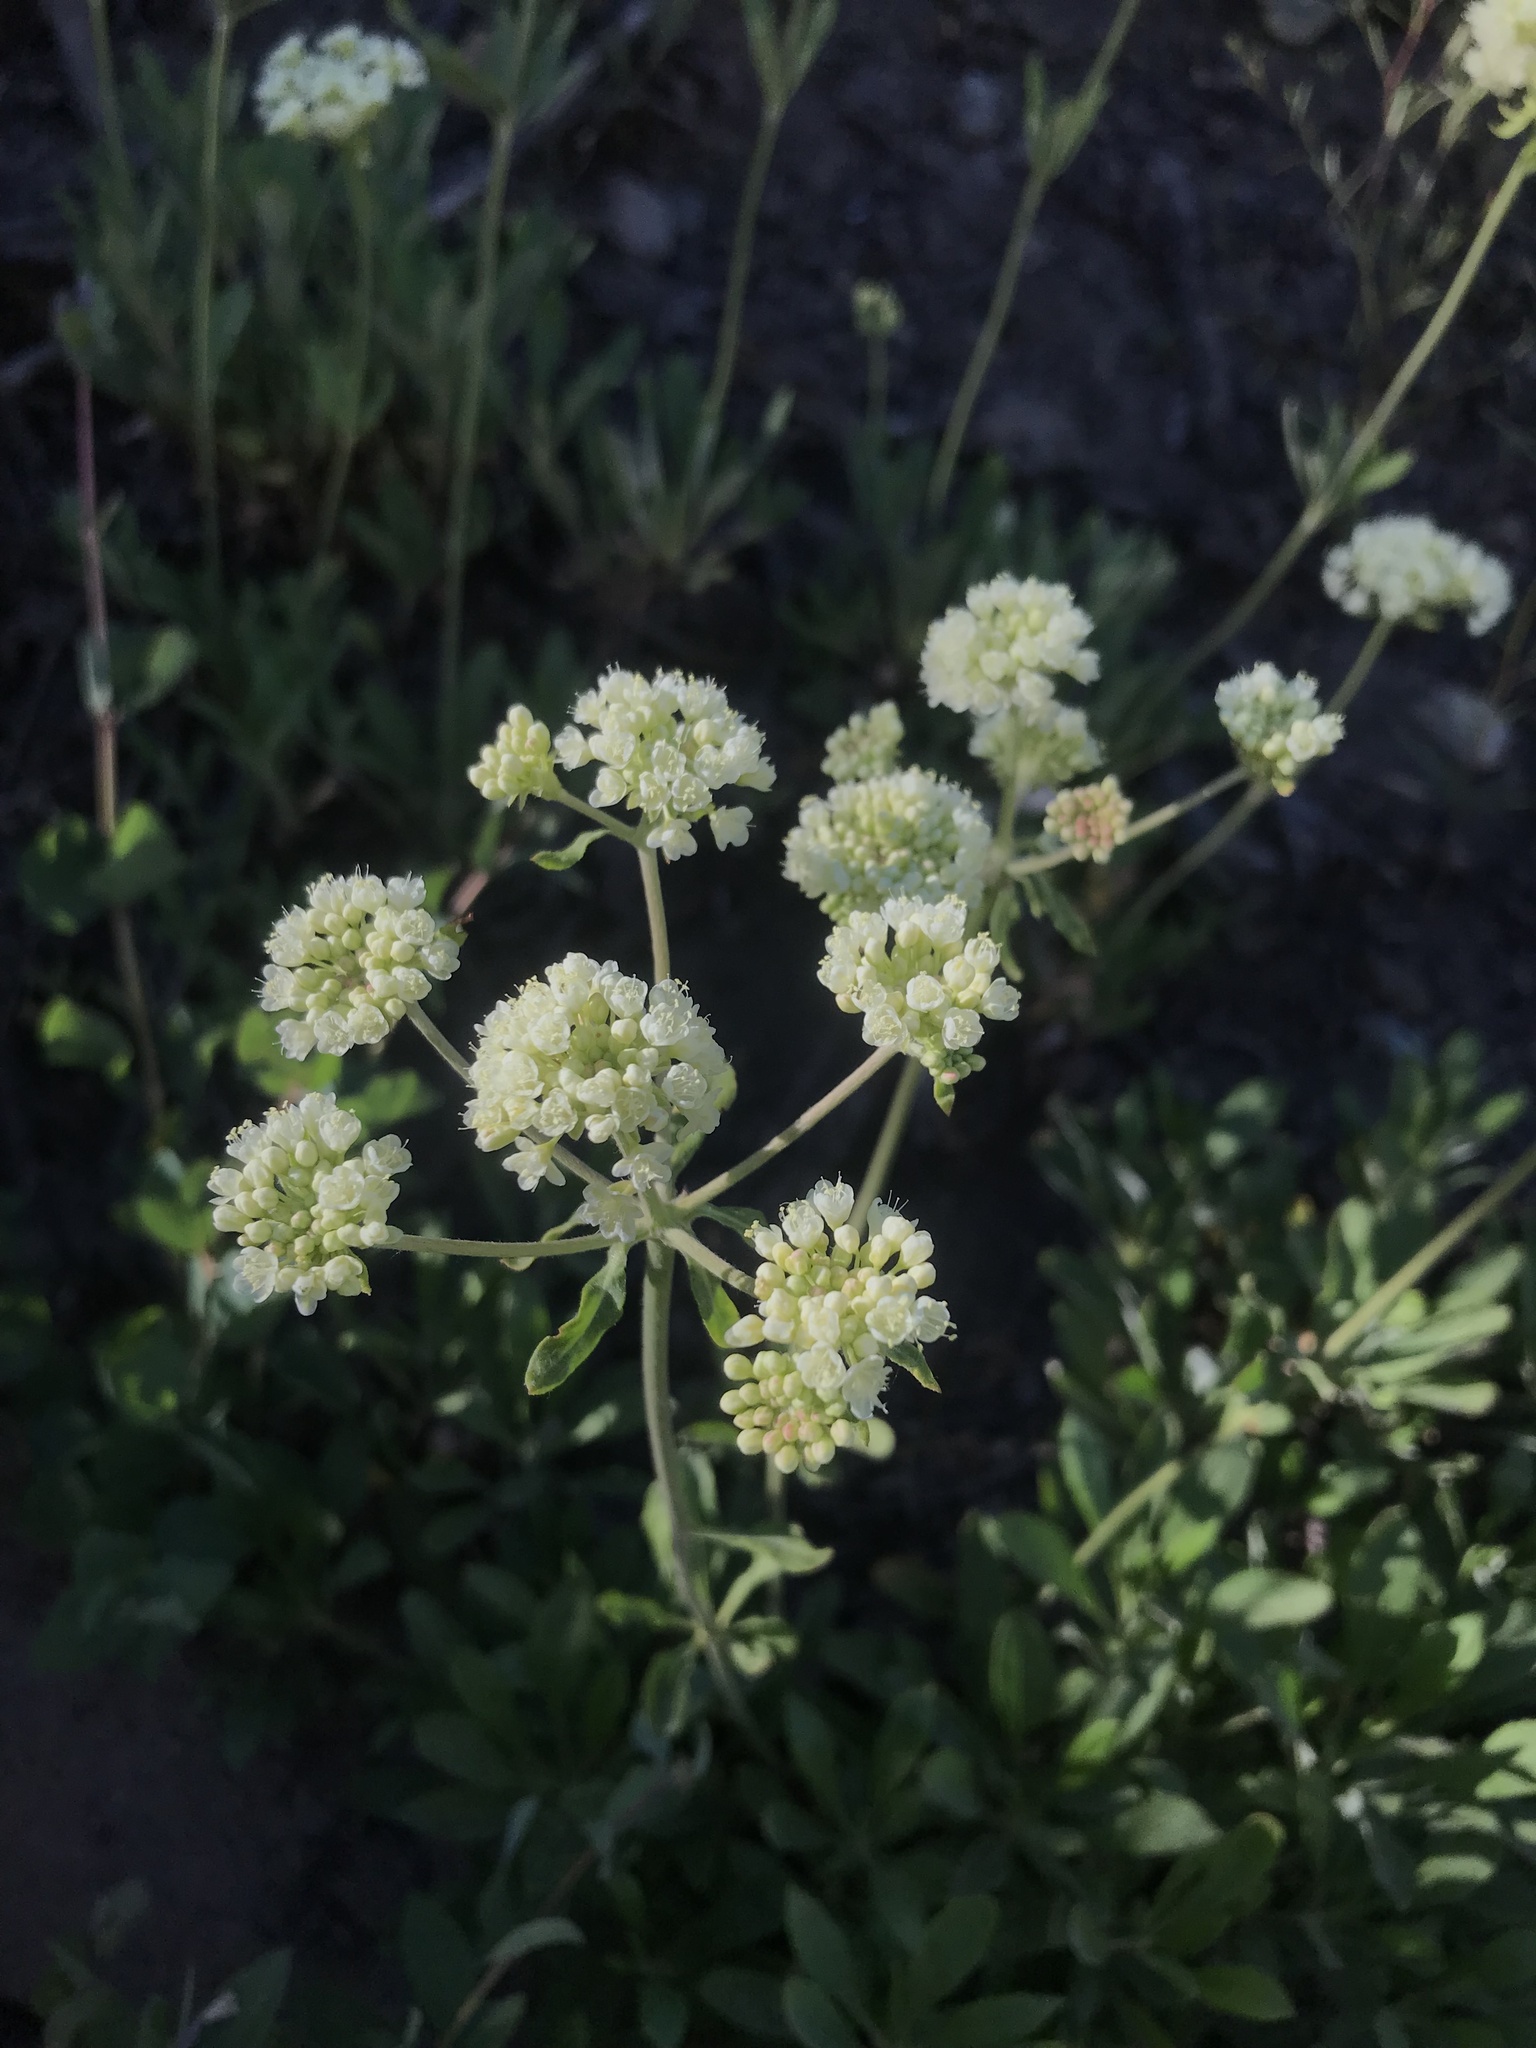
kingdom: Plantae
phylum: Tracheophyta
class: Magnoliopsida
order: Caryophyllales
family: Polygonaceae
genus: Eriogonum
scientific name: Eriogonum heracleoides
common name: Wyeth's buckwheat
